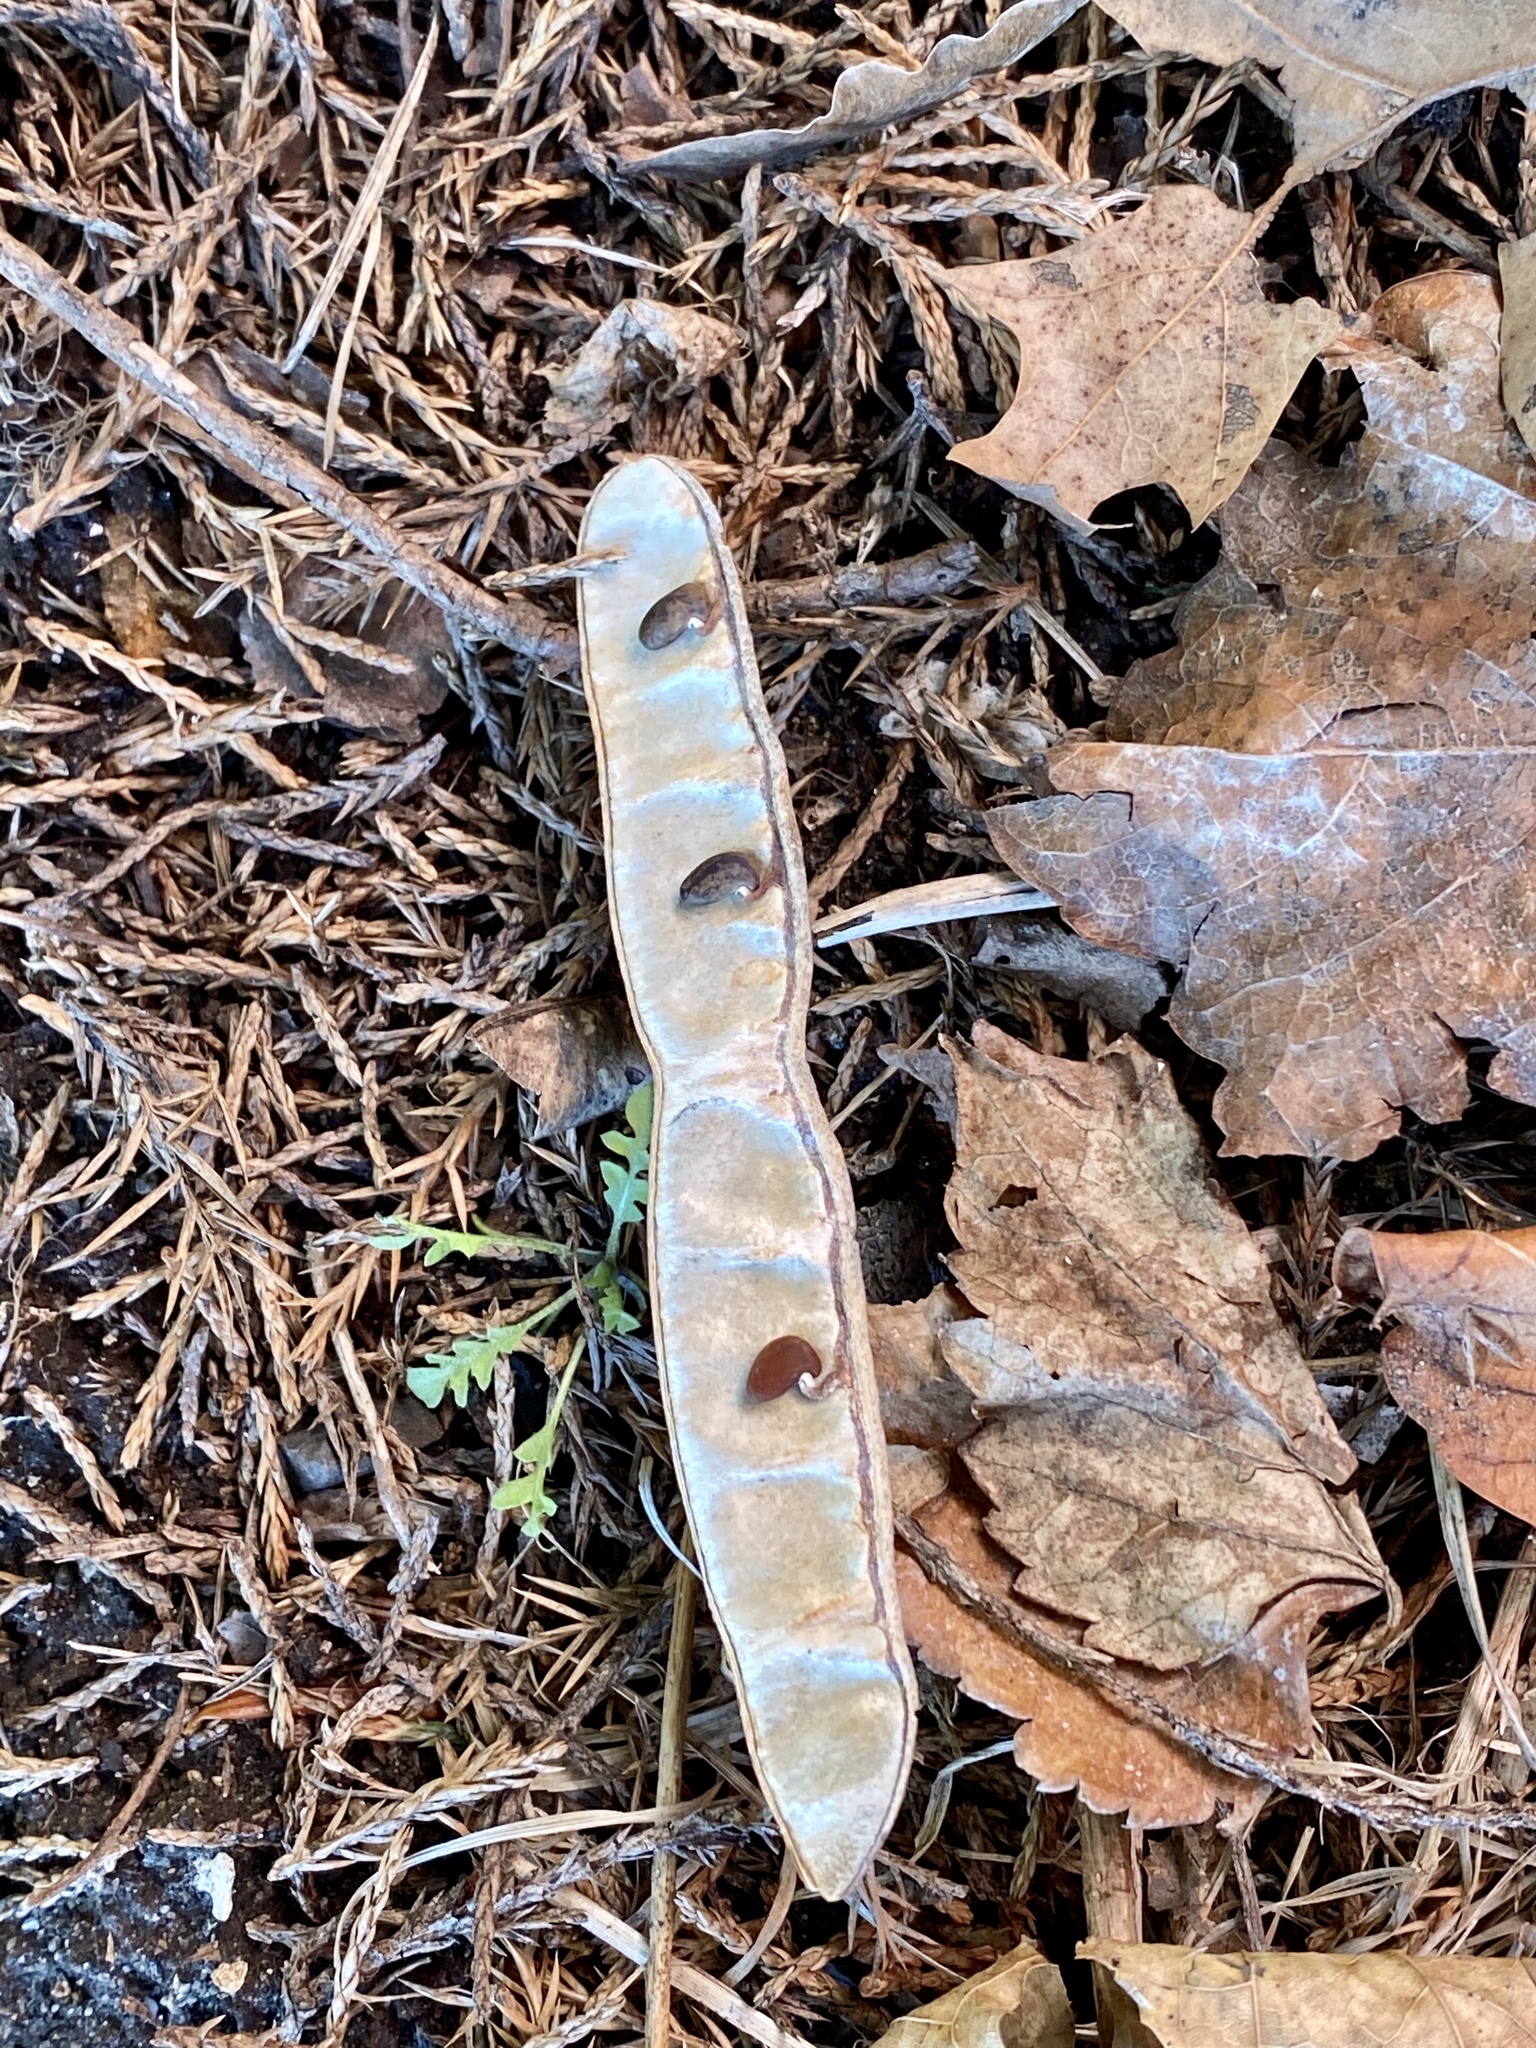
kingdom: Plantae
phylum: Tracheophyta
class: Magnoliopsida
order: Fabales
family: Fabaceae
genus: Robinia
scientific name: Robinia pseudoacacia
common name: Black locust
